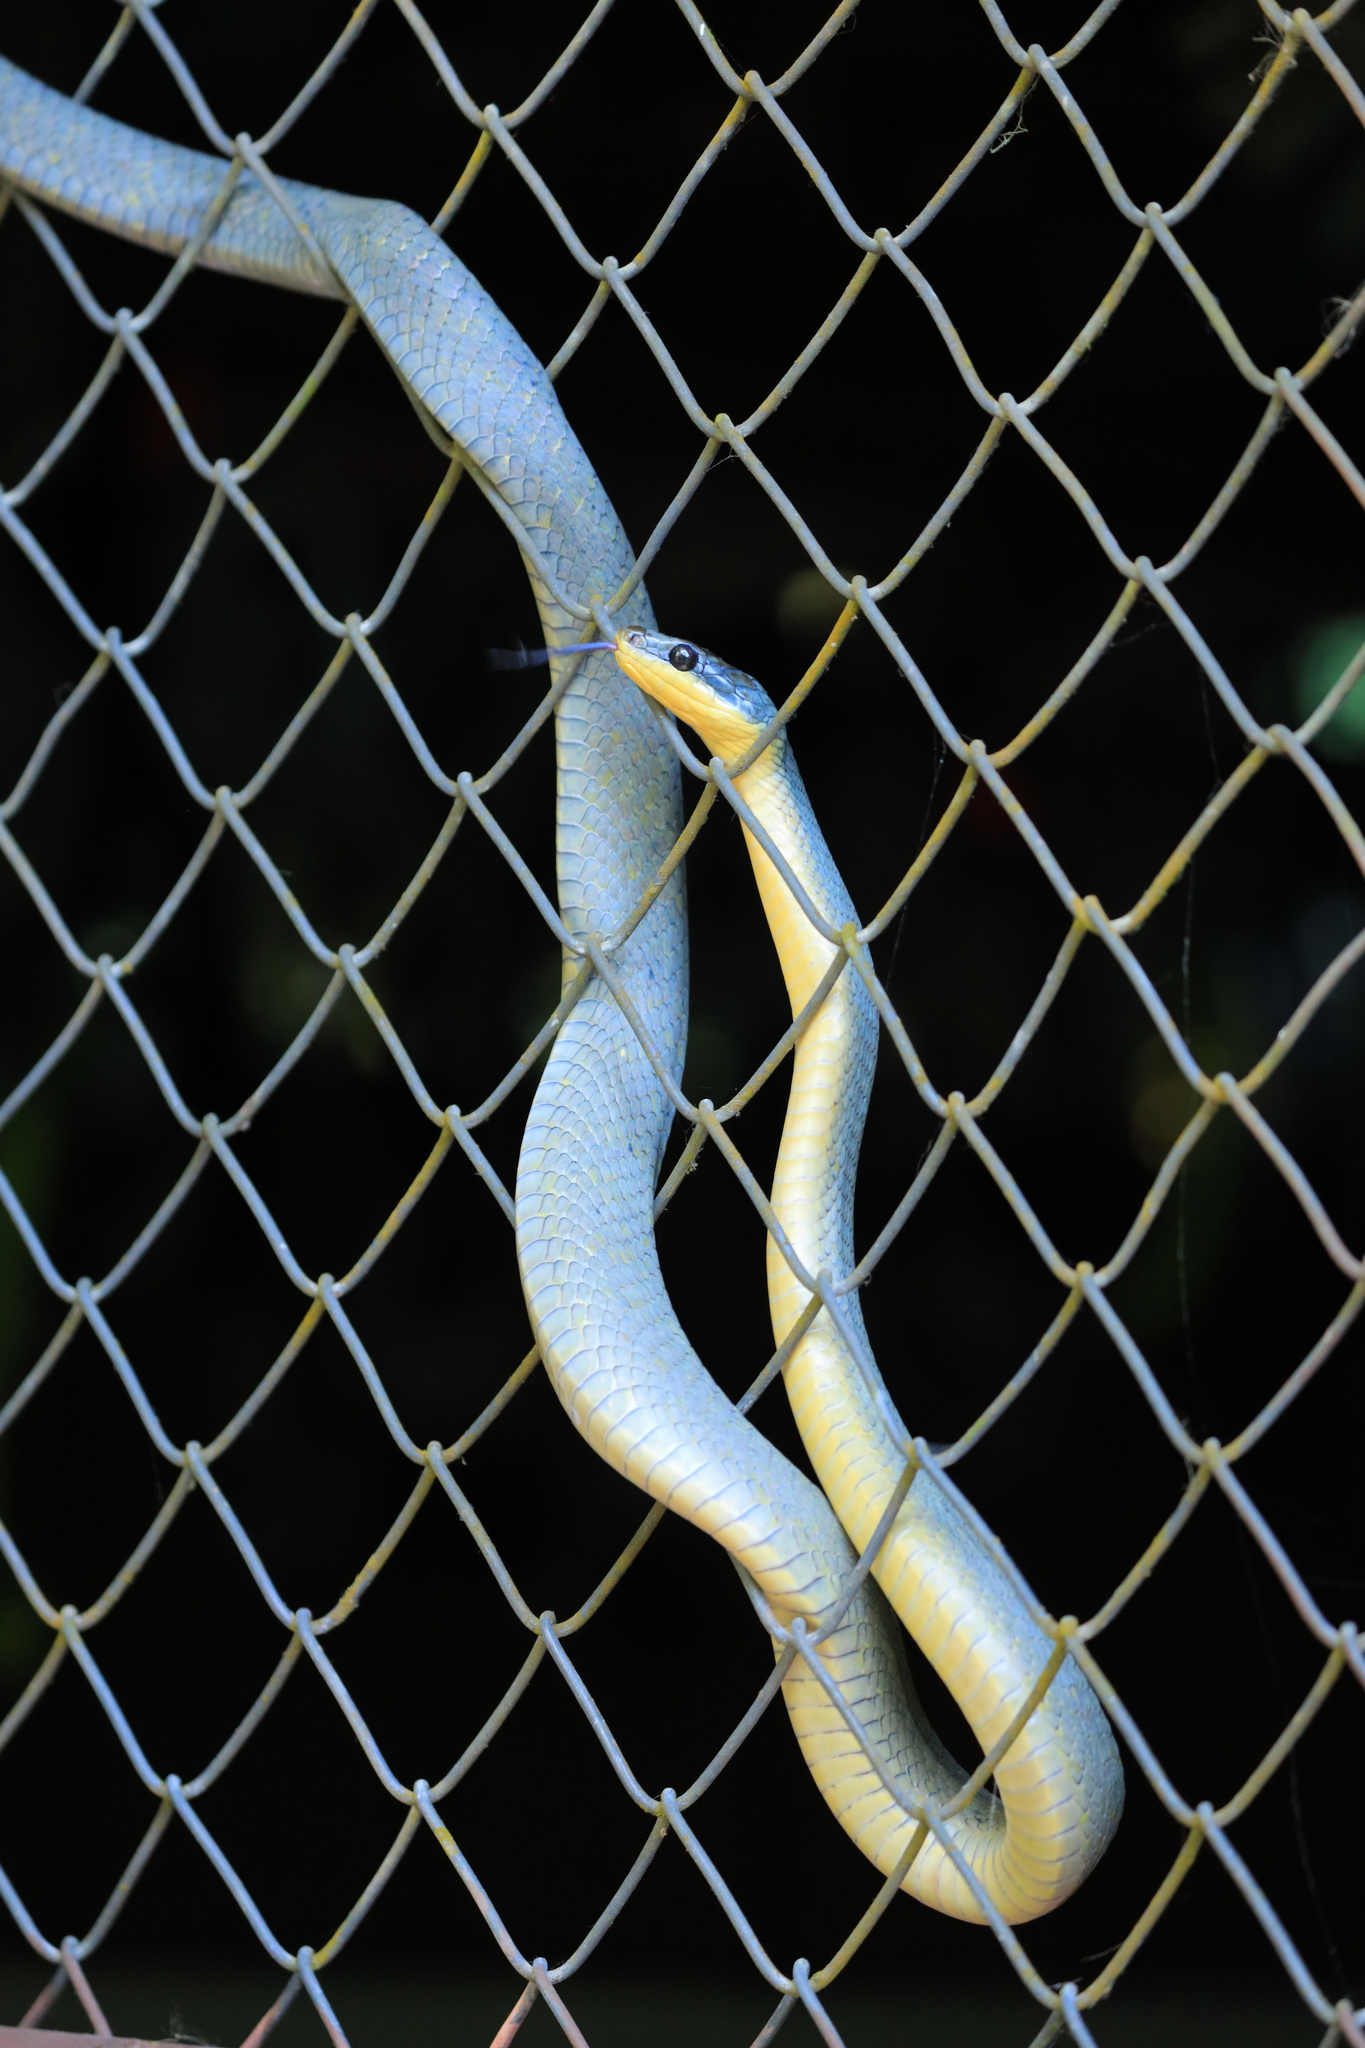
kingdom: Animalia
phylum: Chordata
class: Squamata
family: Colubridae
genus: Phrynonax
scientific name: Phrynonax poecilonotus
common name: Puffing snake
